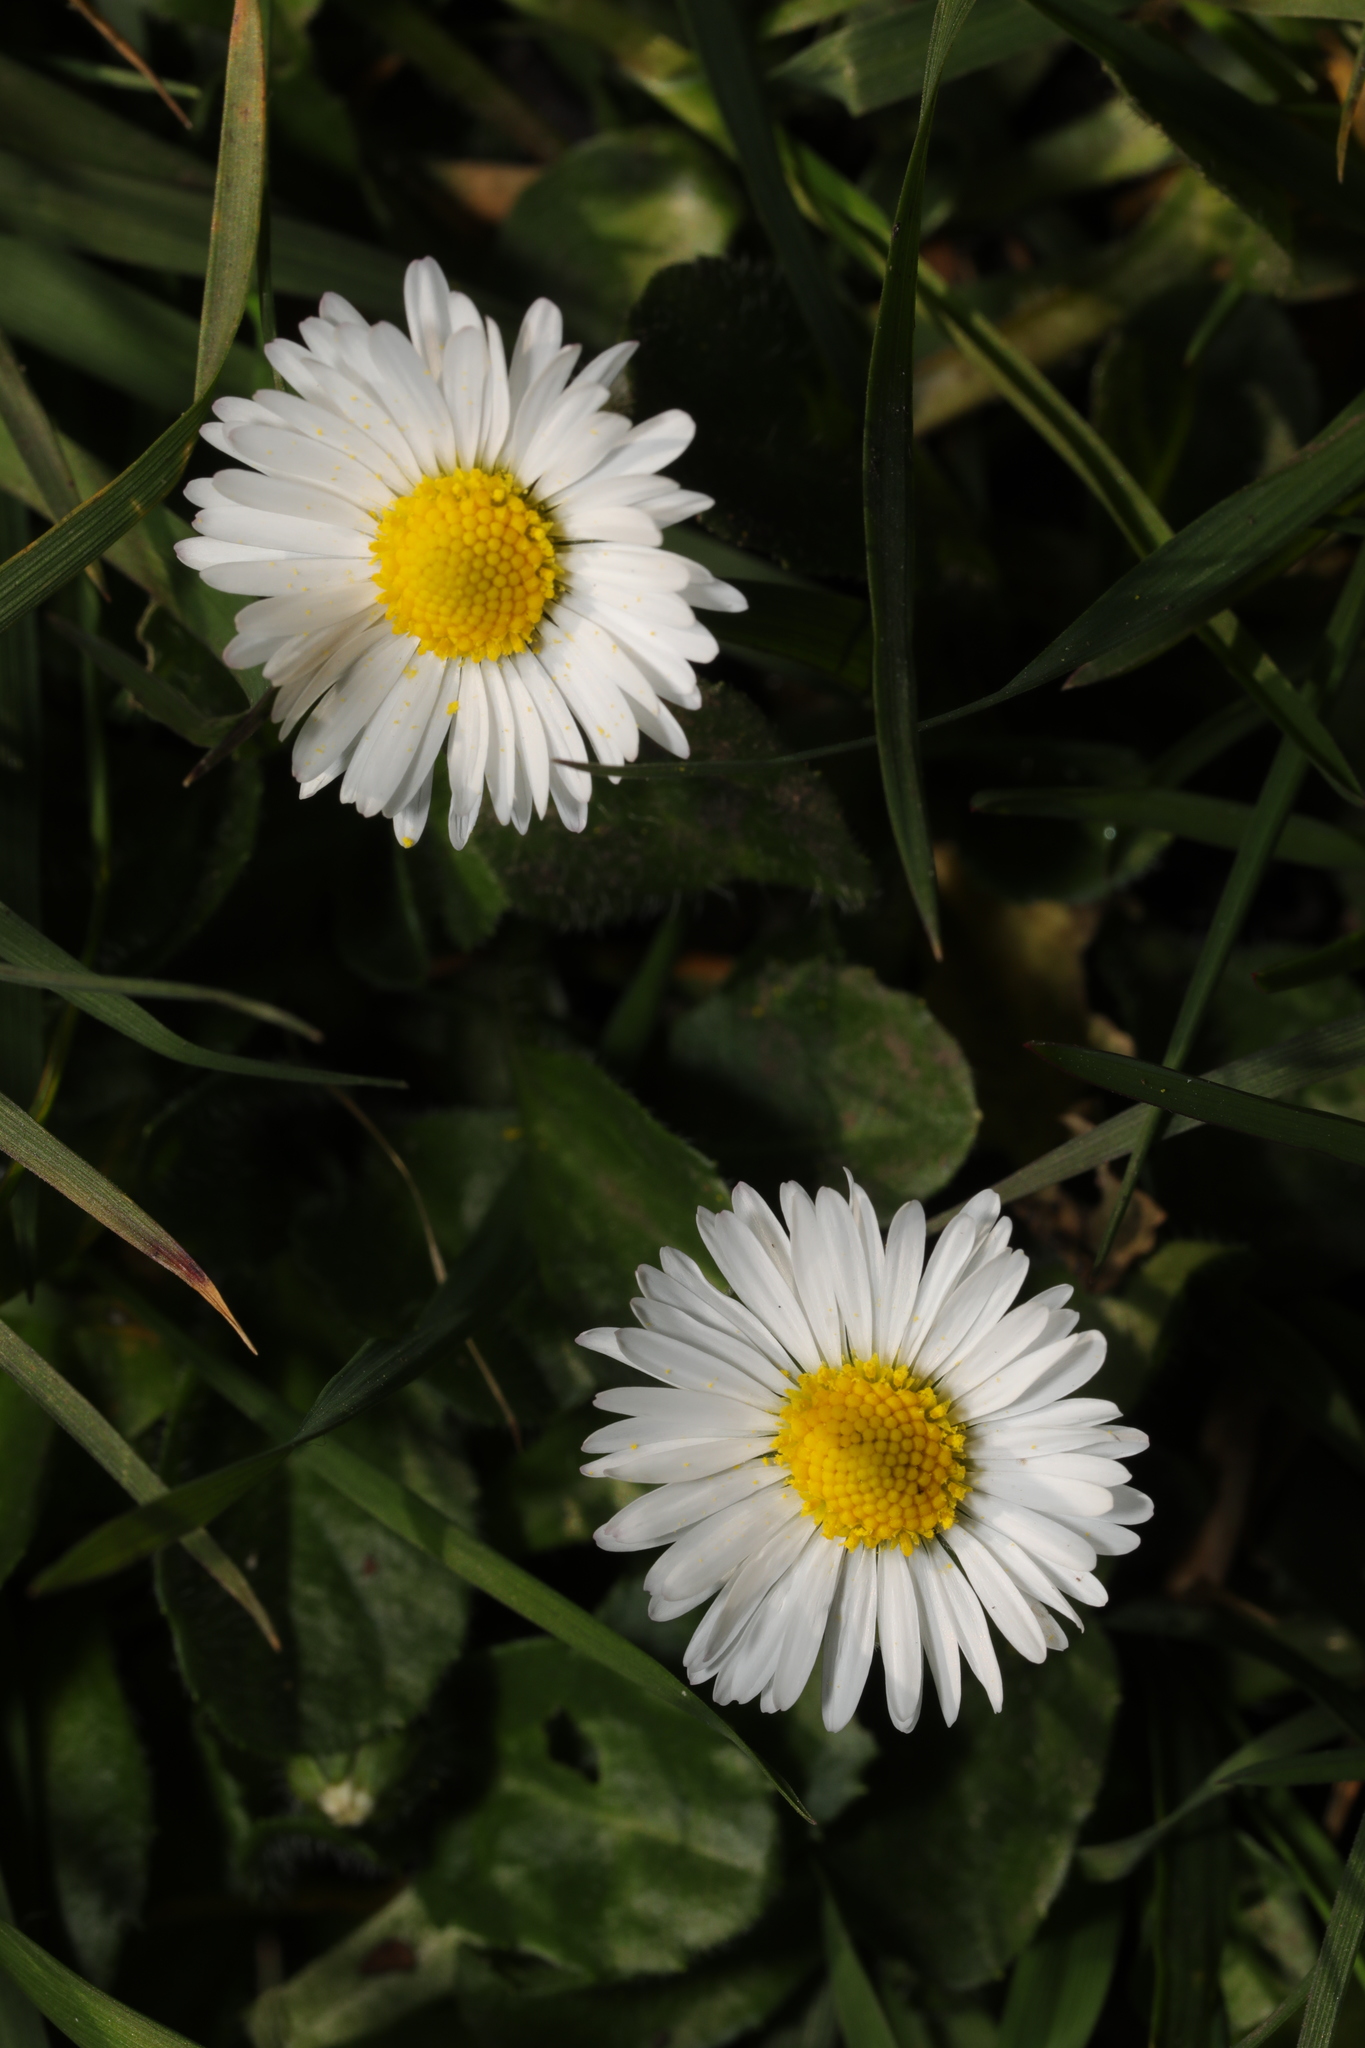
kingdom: Plantae
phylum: Tracheophyta
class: Magnoliopsida
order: Asterales
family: Asteraceae
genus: Bellis
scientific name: Bellis perennis
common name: Lawndaisy
